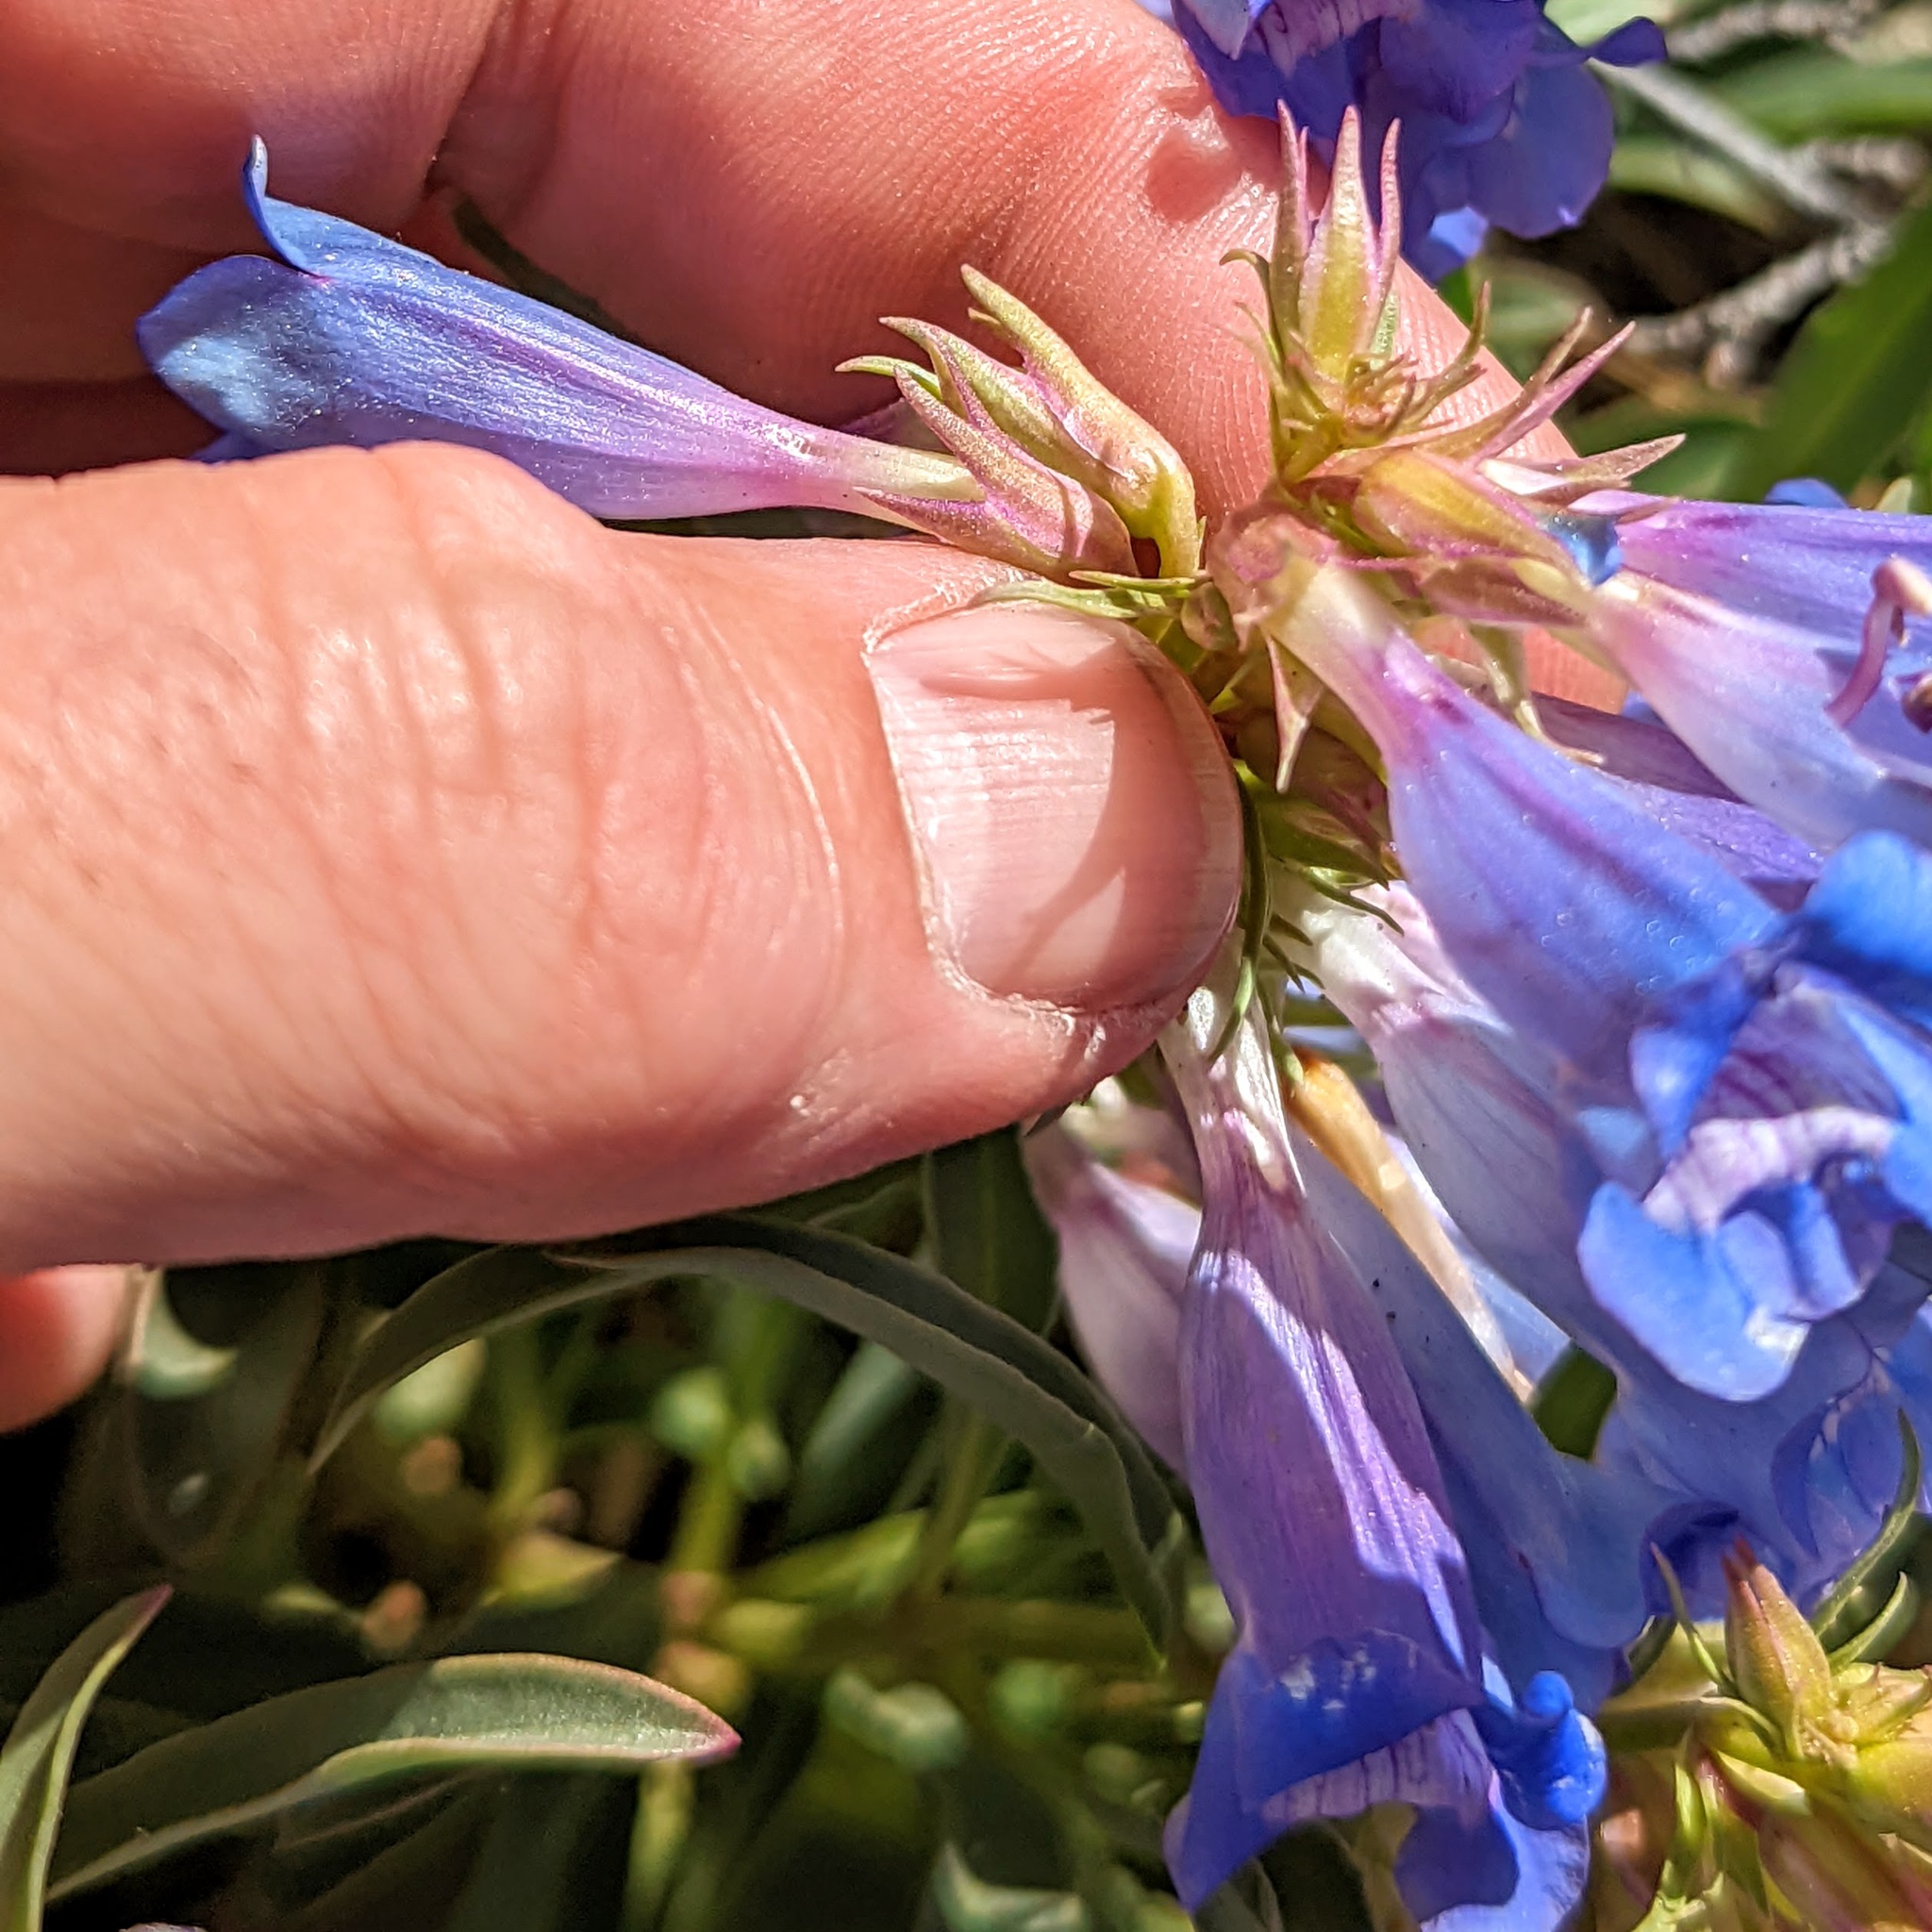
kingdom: Plantae
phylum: Tracheophyta
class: Magnoliopsida
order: Lamiales
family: Plantaginaceae
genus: Penstemon
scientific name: Penstemon speciosus
